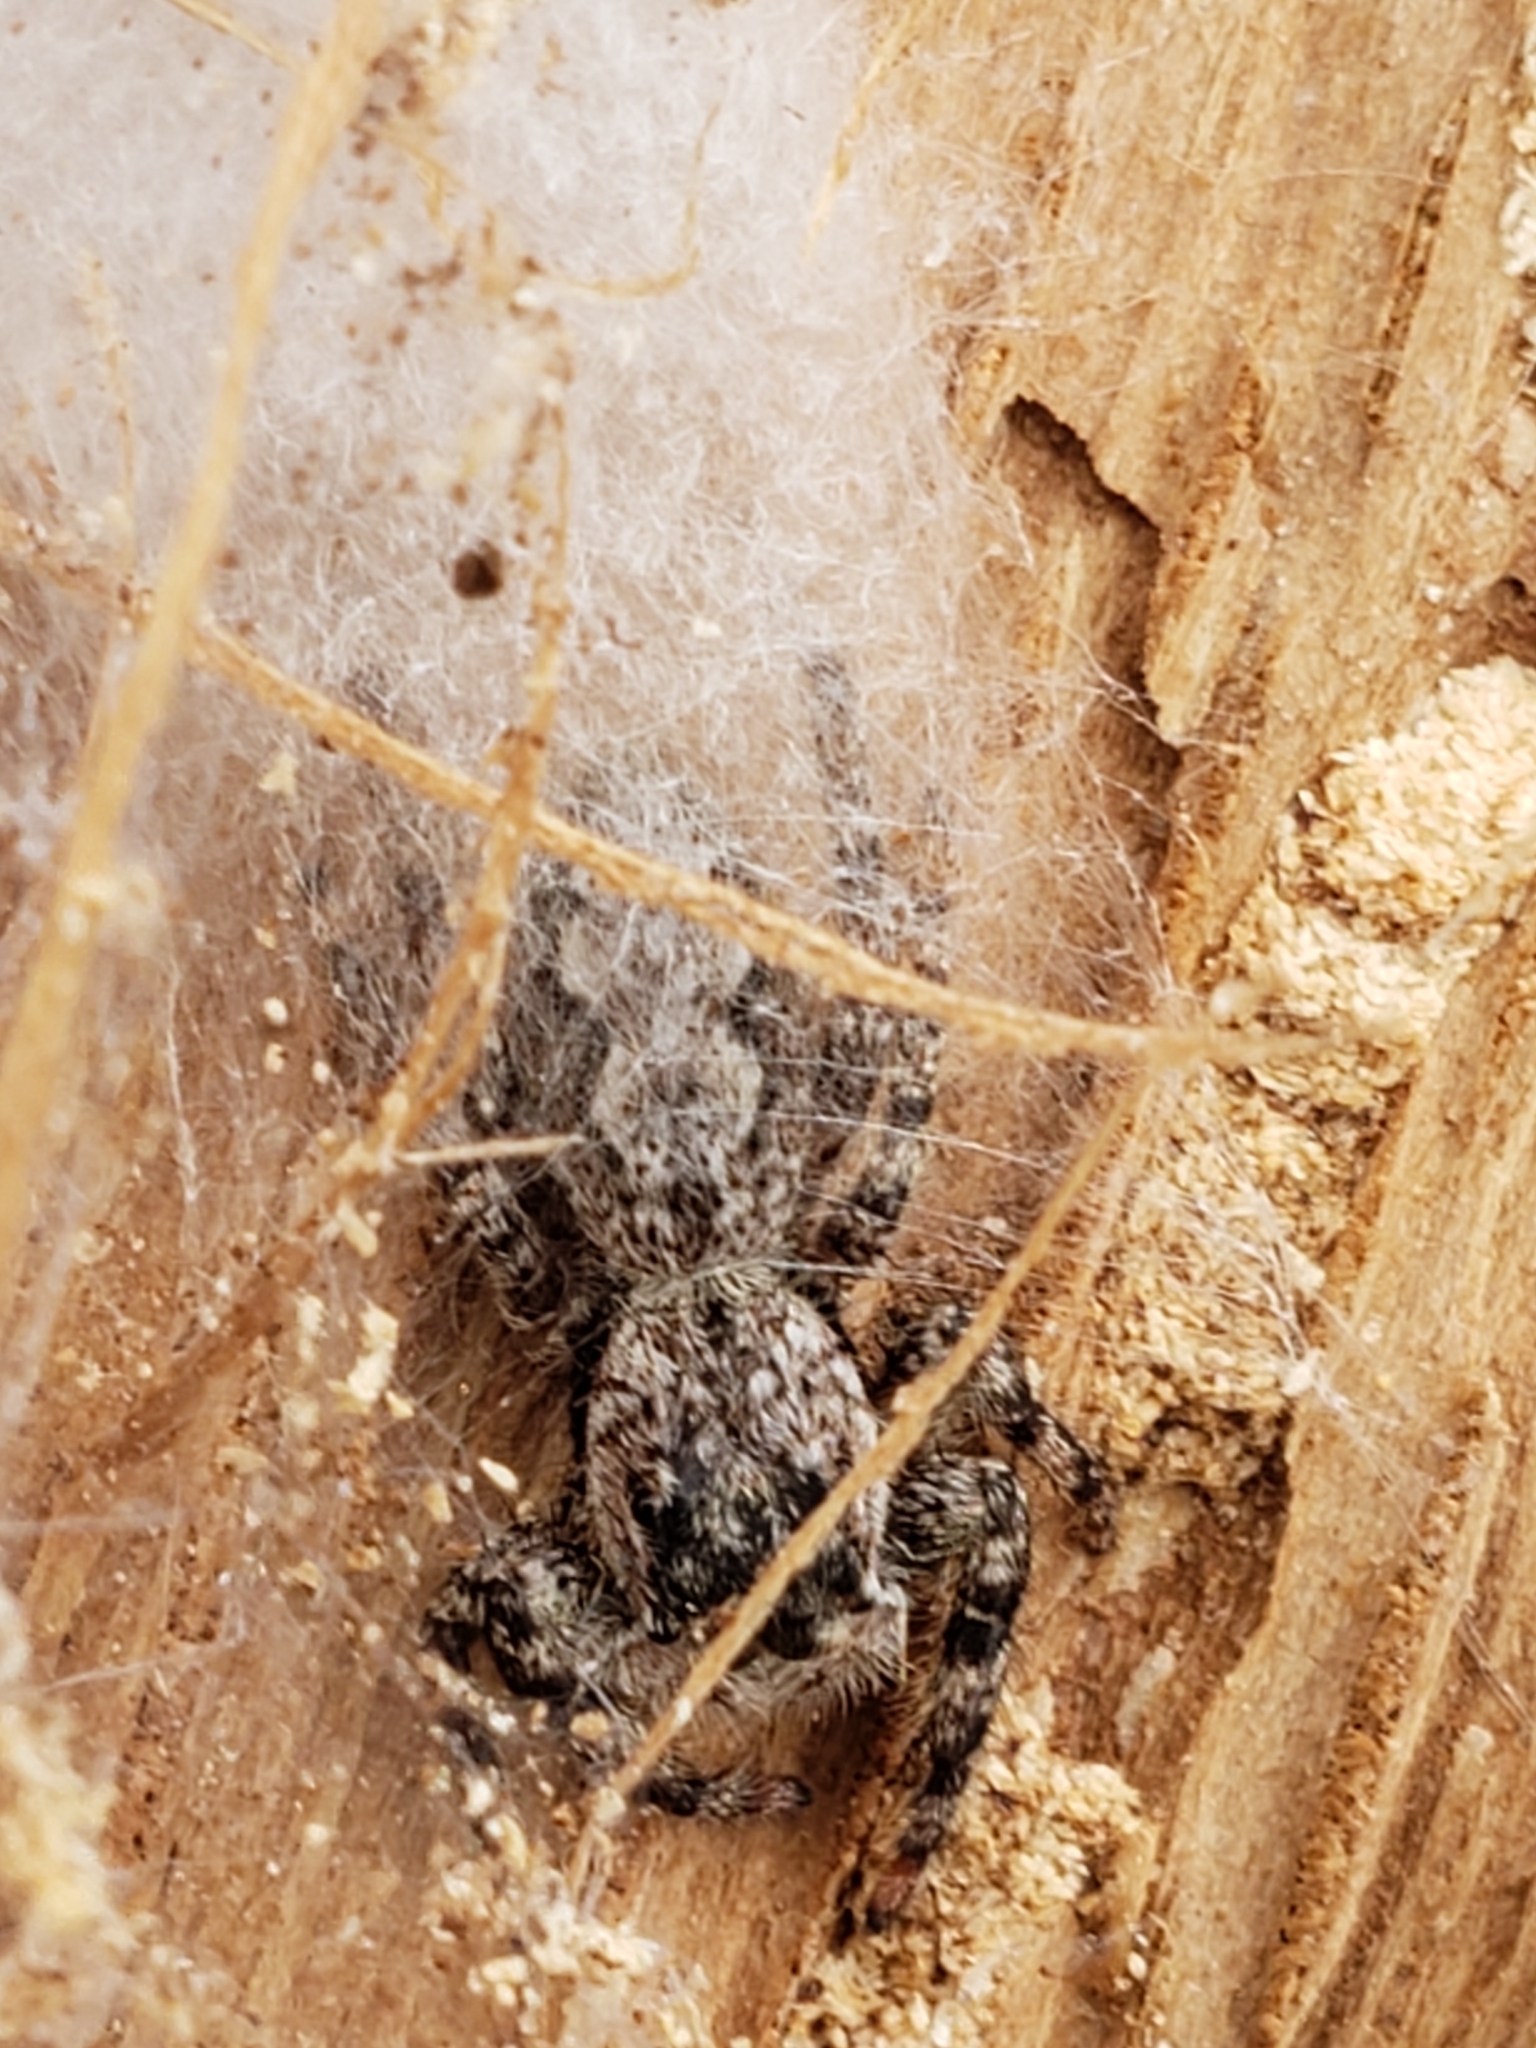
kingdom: Animalia
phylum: Arthropoda
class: Arachnida
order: Araneae
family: Salticidae
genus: Platycryptus
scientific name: Platycryptus undatus
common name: Tan jumping spider
